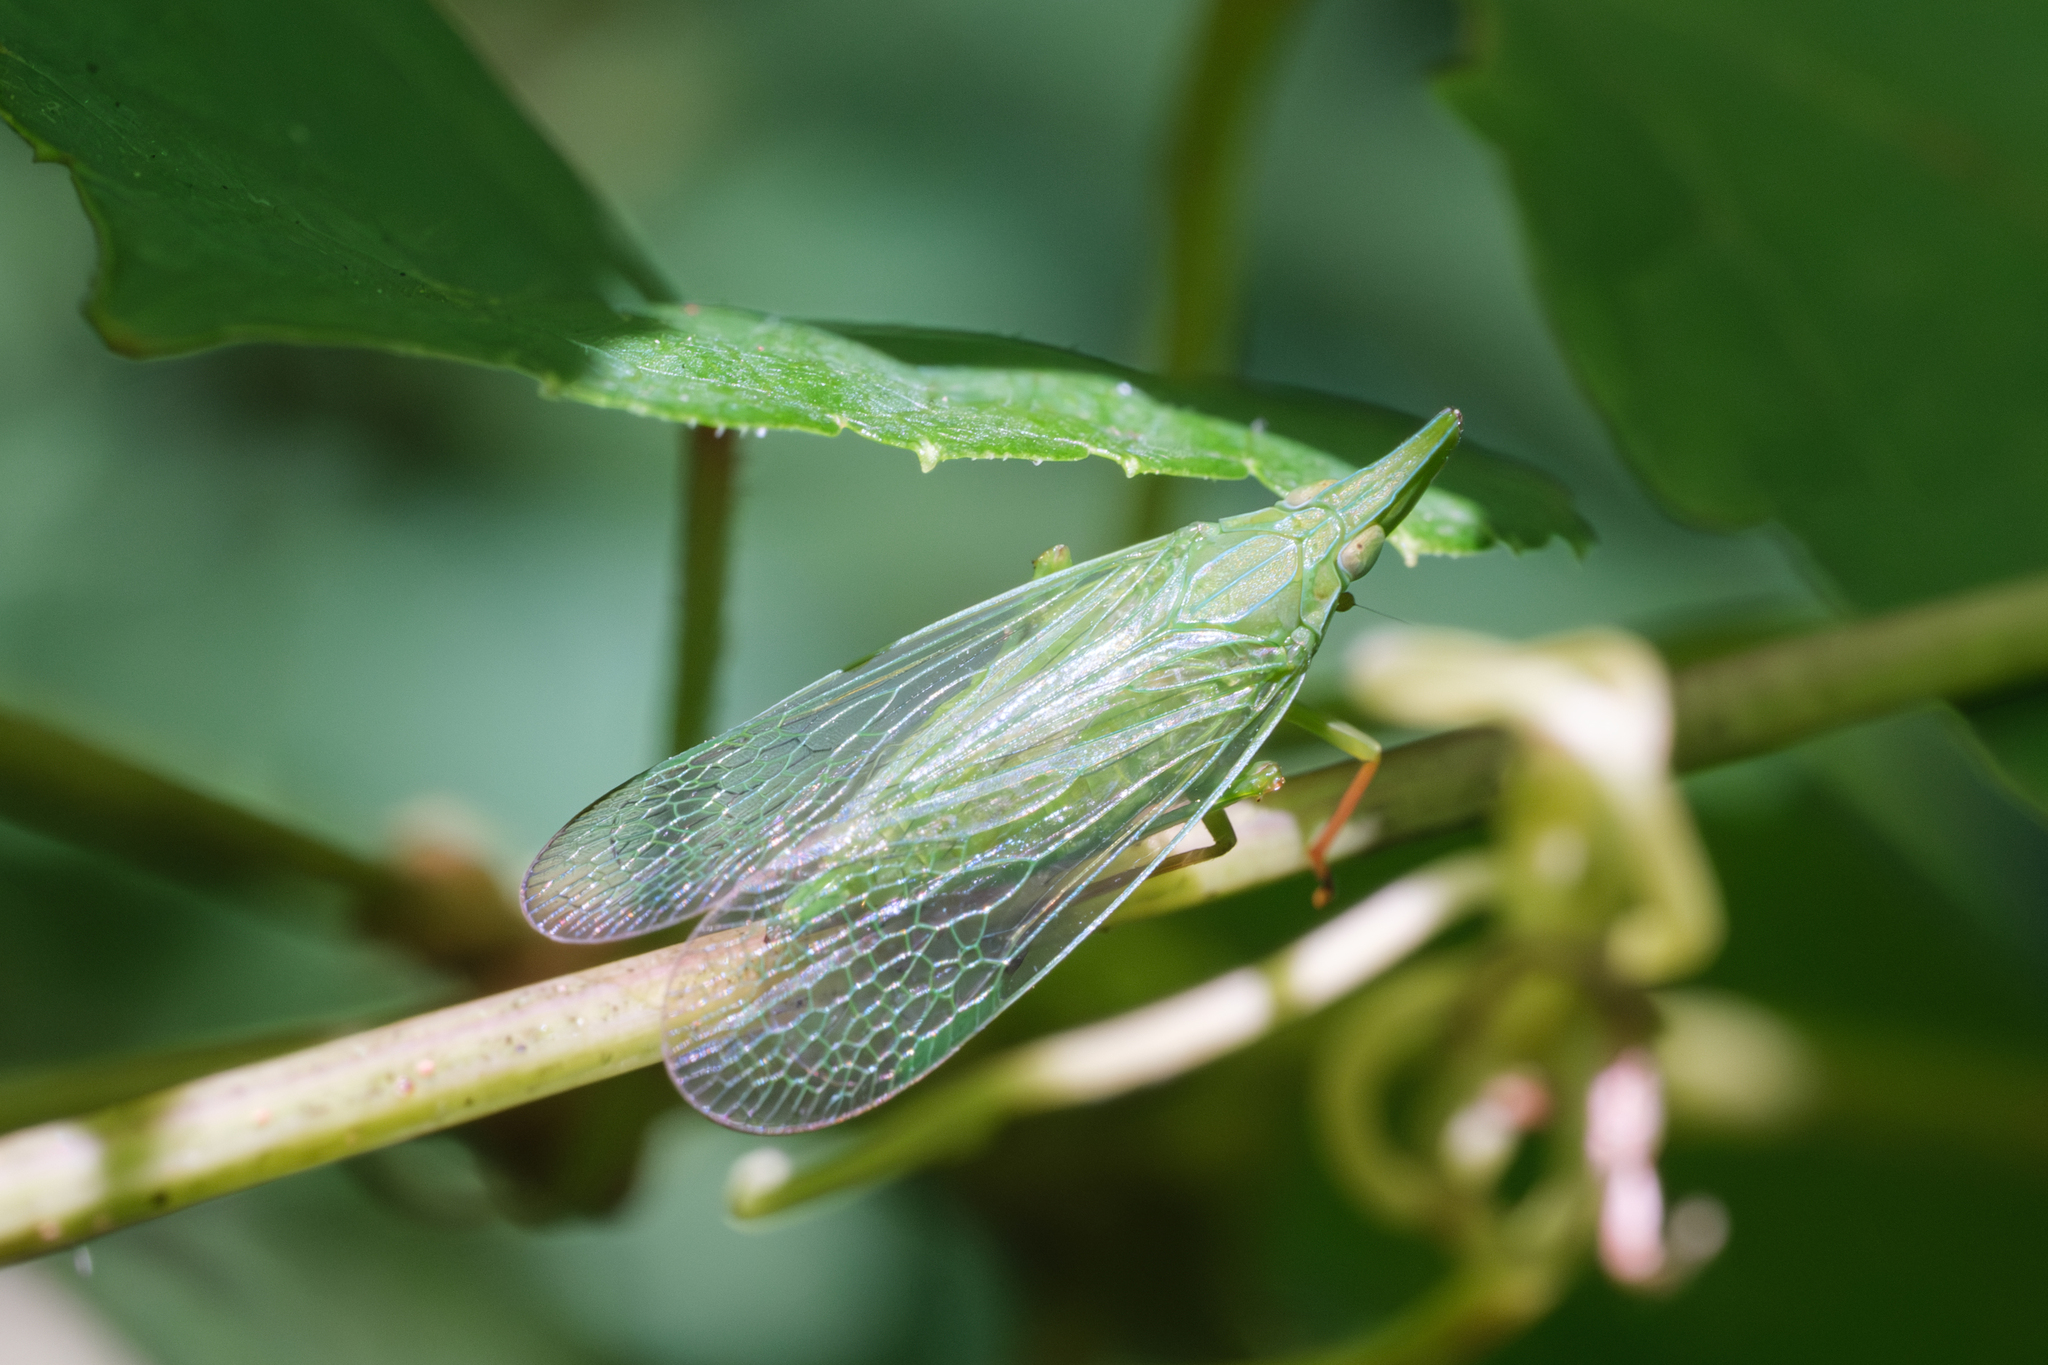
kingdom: Animalia
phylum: Arthropoda
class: Insecta
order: Hemiptera
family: Dictyopharidae
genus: Rhynchomitra
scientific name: Rhynchomitra microrhina
